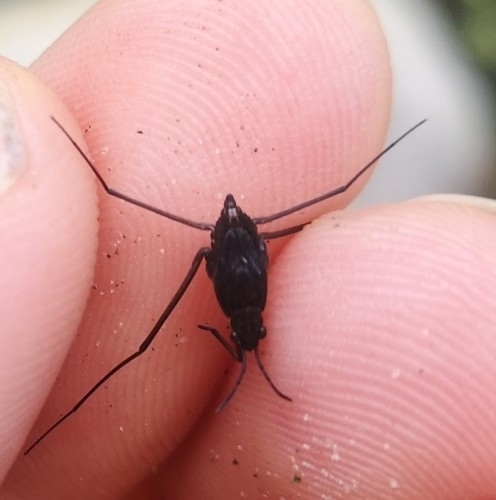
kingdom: Animalia
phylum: Arthropoda
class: Insecta
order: Hemiptera
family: Gerridae
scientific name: Gerridae
